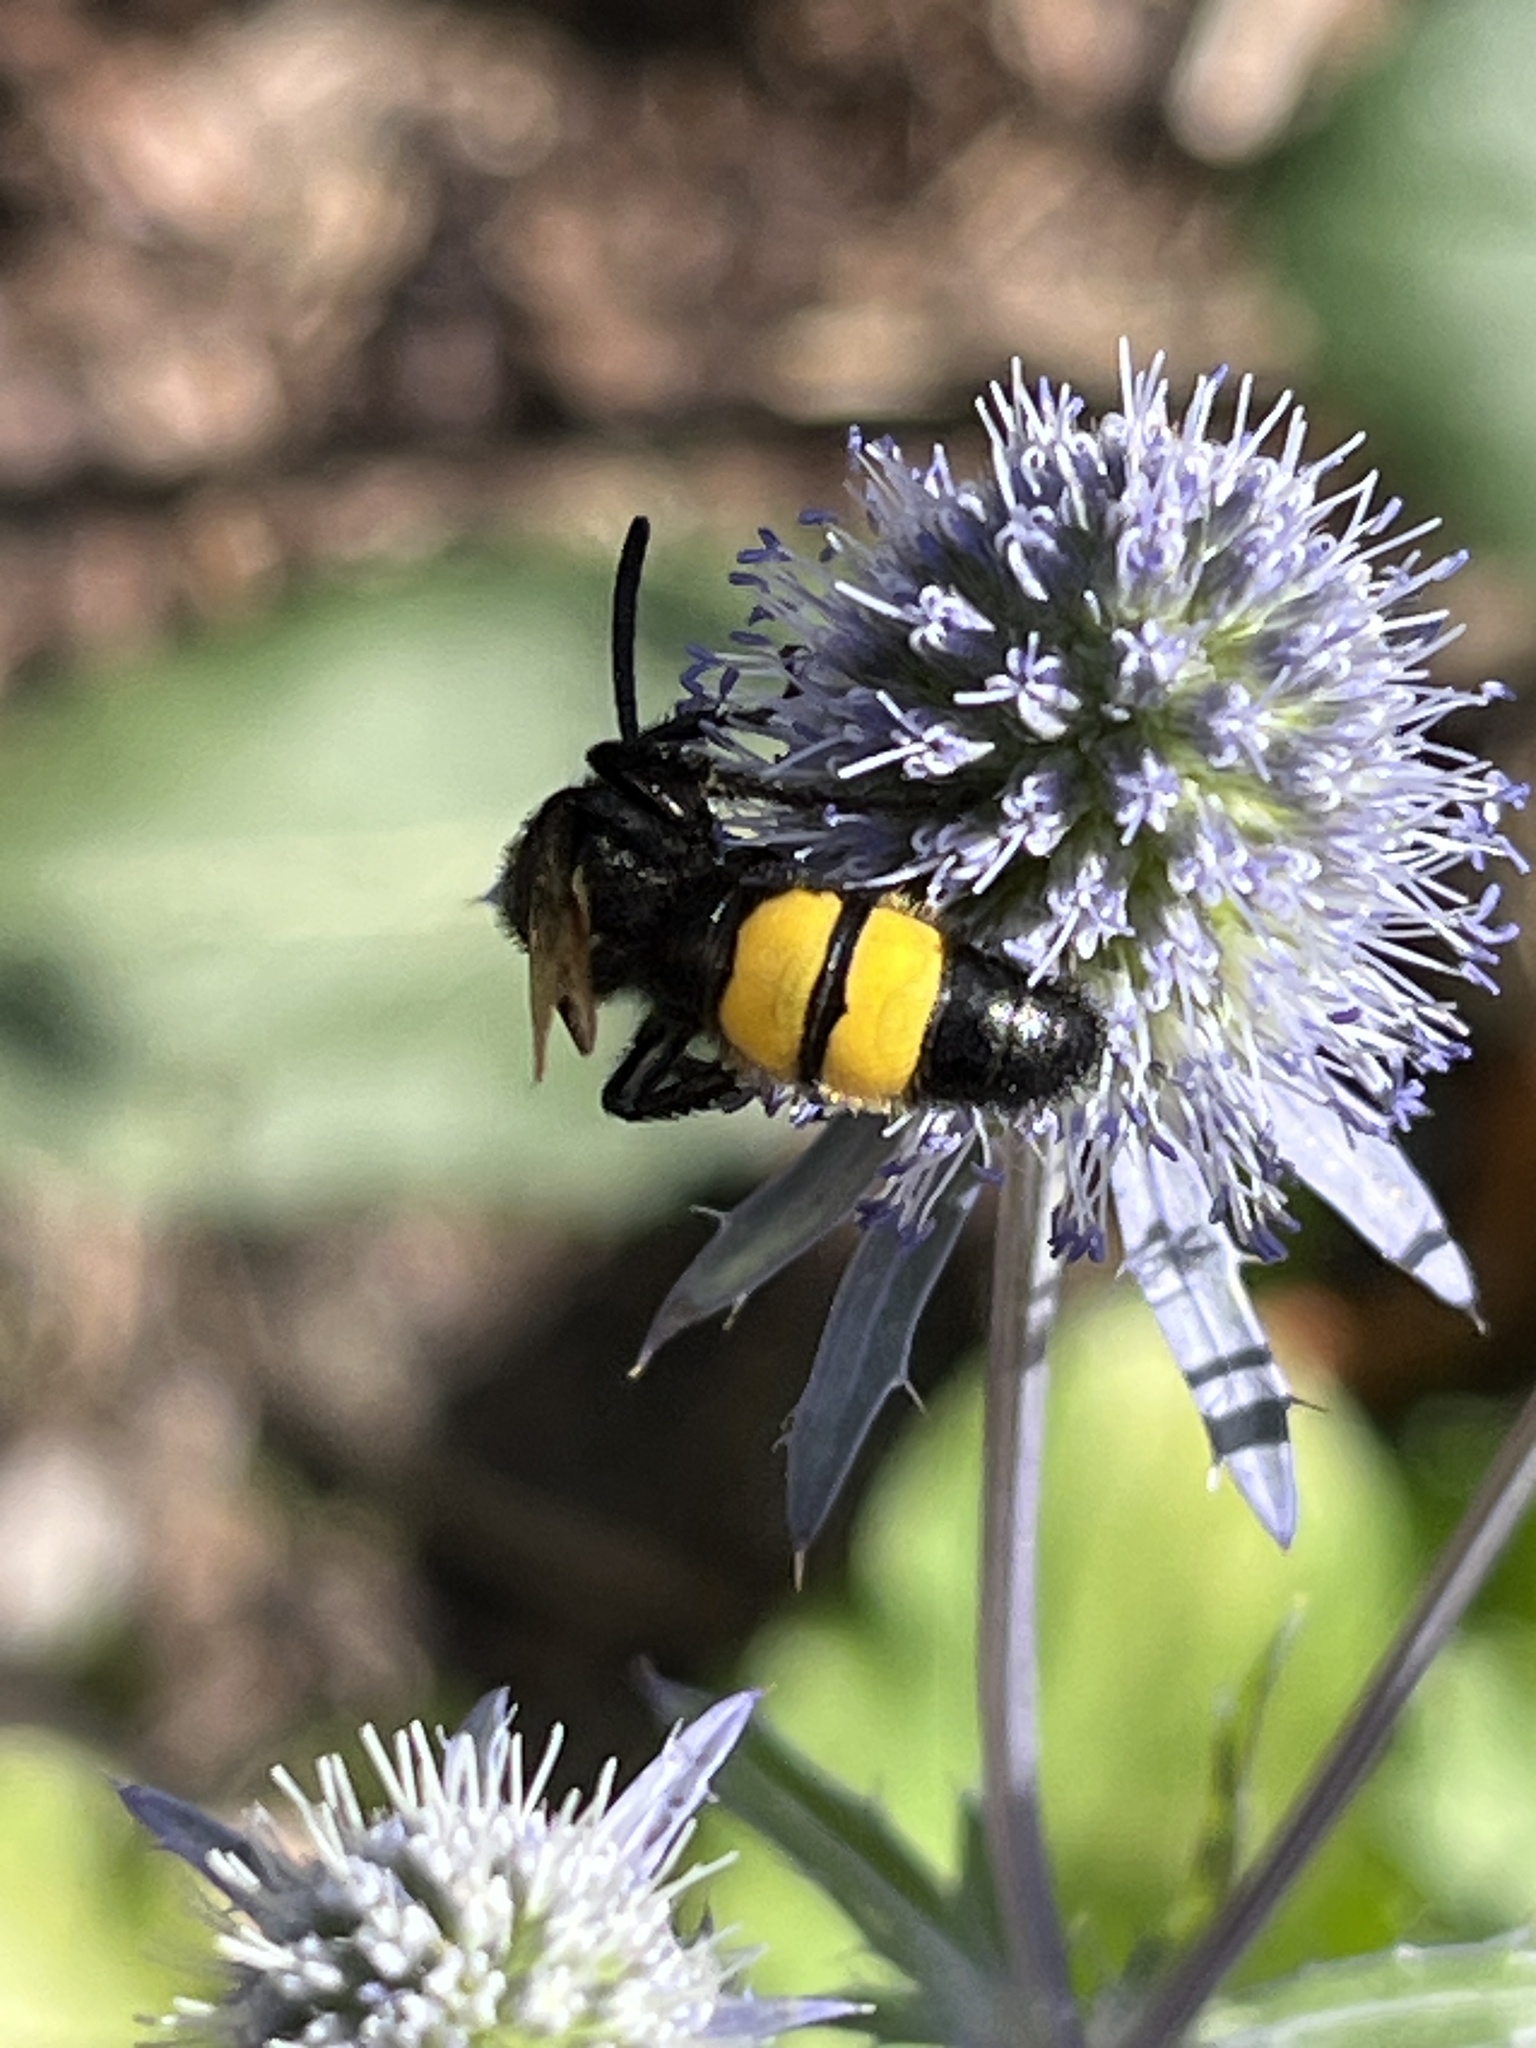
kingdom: Animalia
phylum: Arthropoda
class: Insecta
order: Hymenoptera
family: Scoliidae
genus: Scolia
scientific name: Scolia hirta
